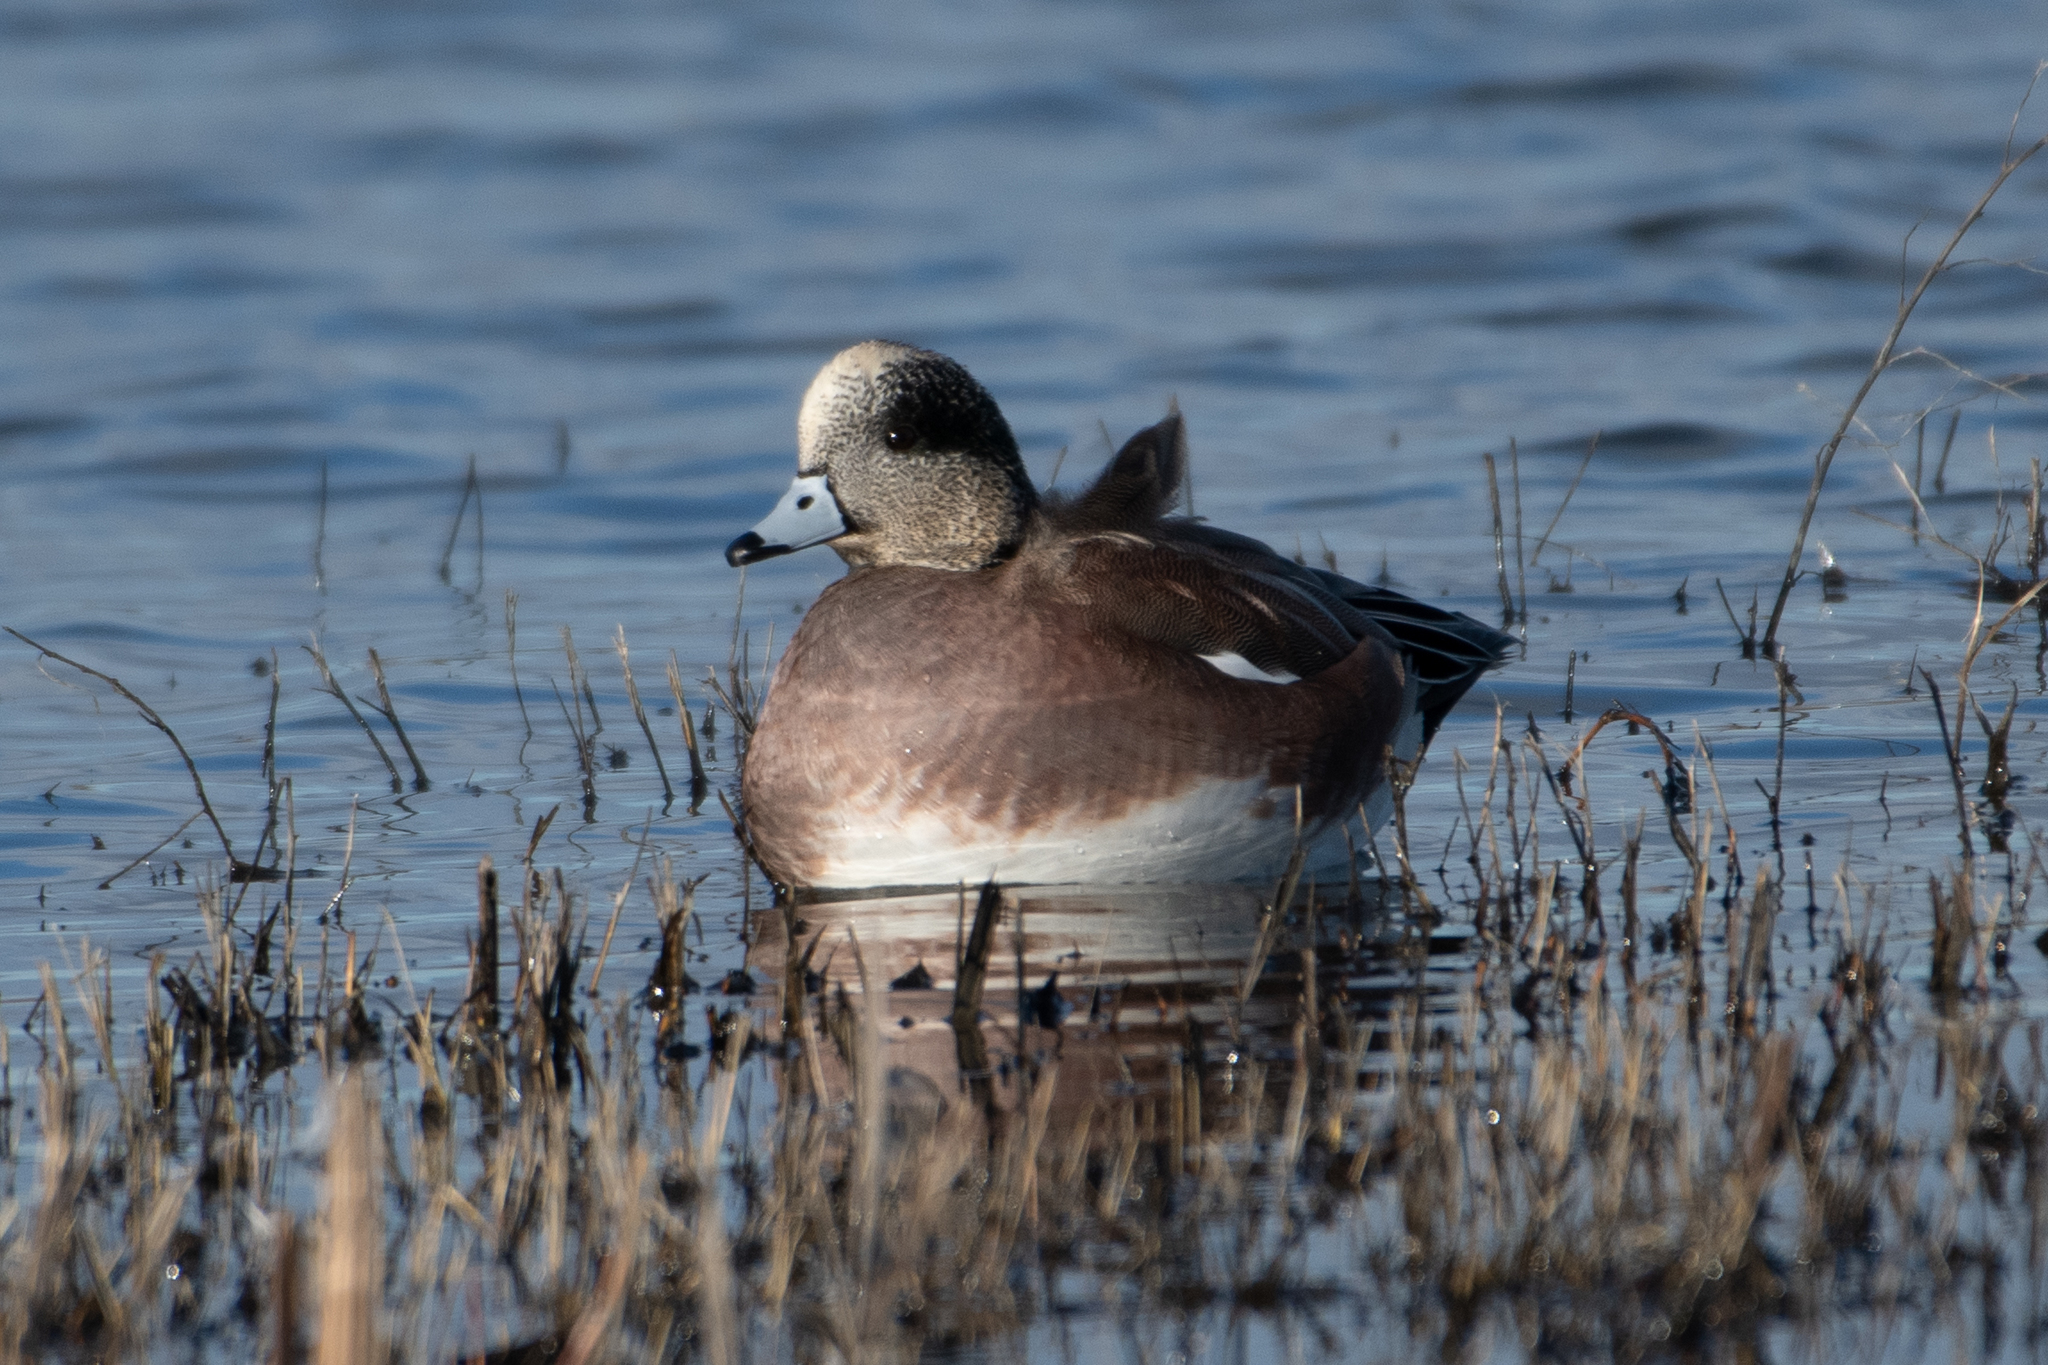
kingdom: Animalia
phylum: Chordata
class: Aves
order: Anseriformes
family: Anatidae
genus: Mareca
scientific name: Mareca americana
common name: American wigeon
